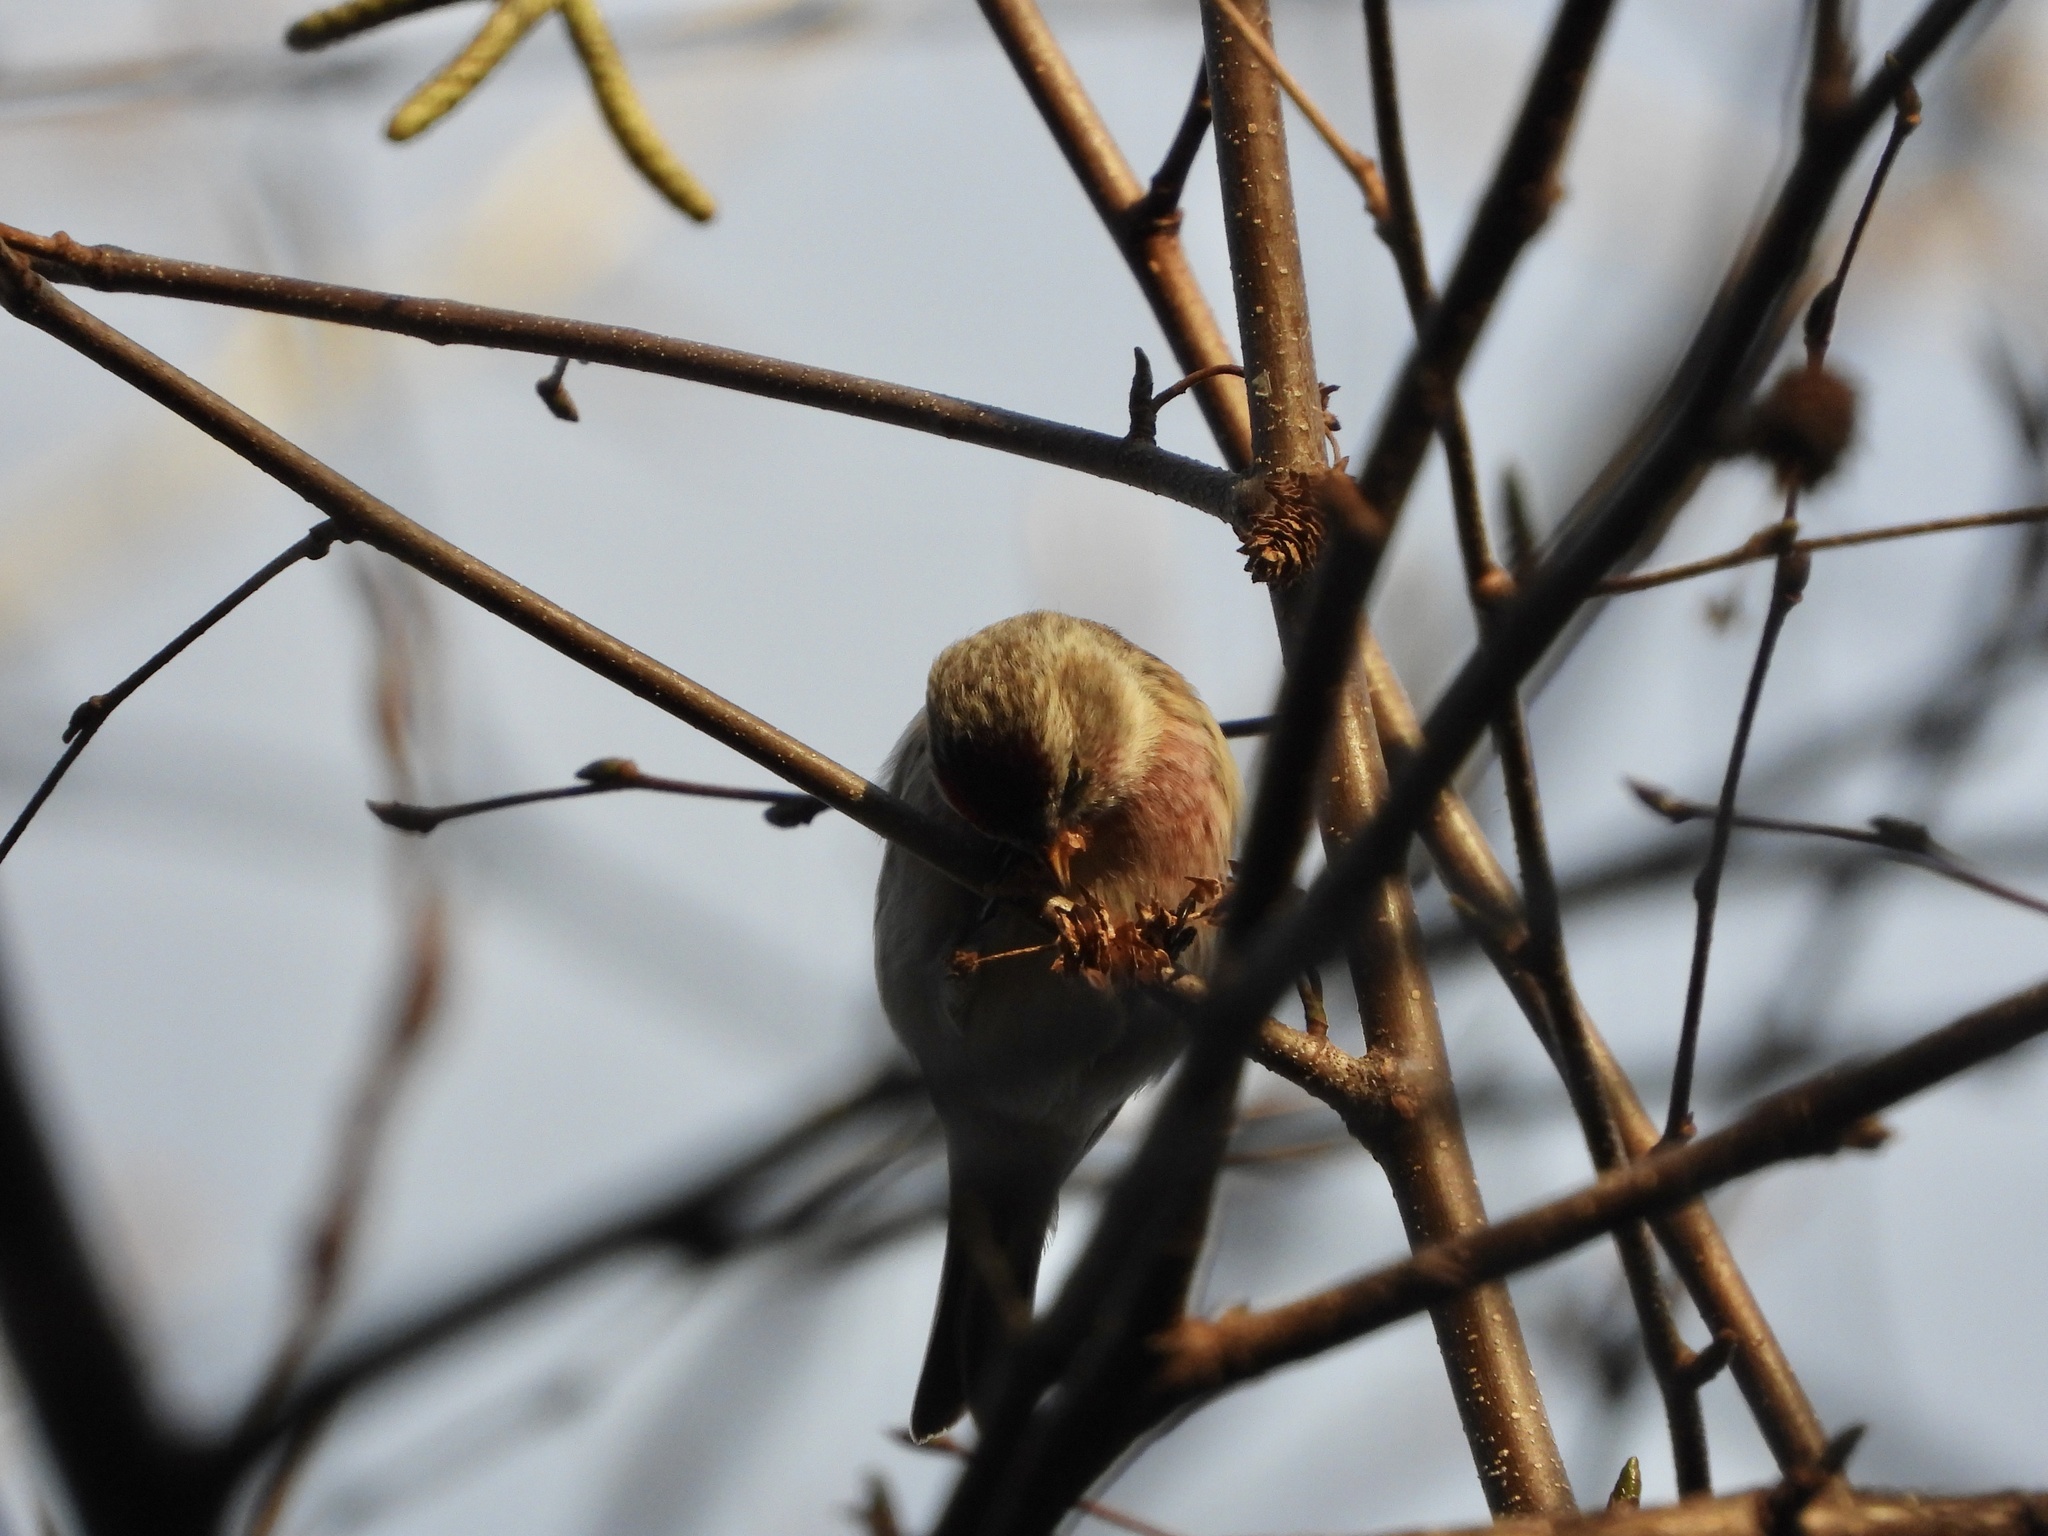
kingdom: Animalia
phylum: Chordata
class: Aves
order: Passeriformes
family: Fringillidae
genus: Acanthis
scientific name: Acanthis flammea
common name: Common redpoll
